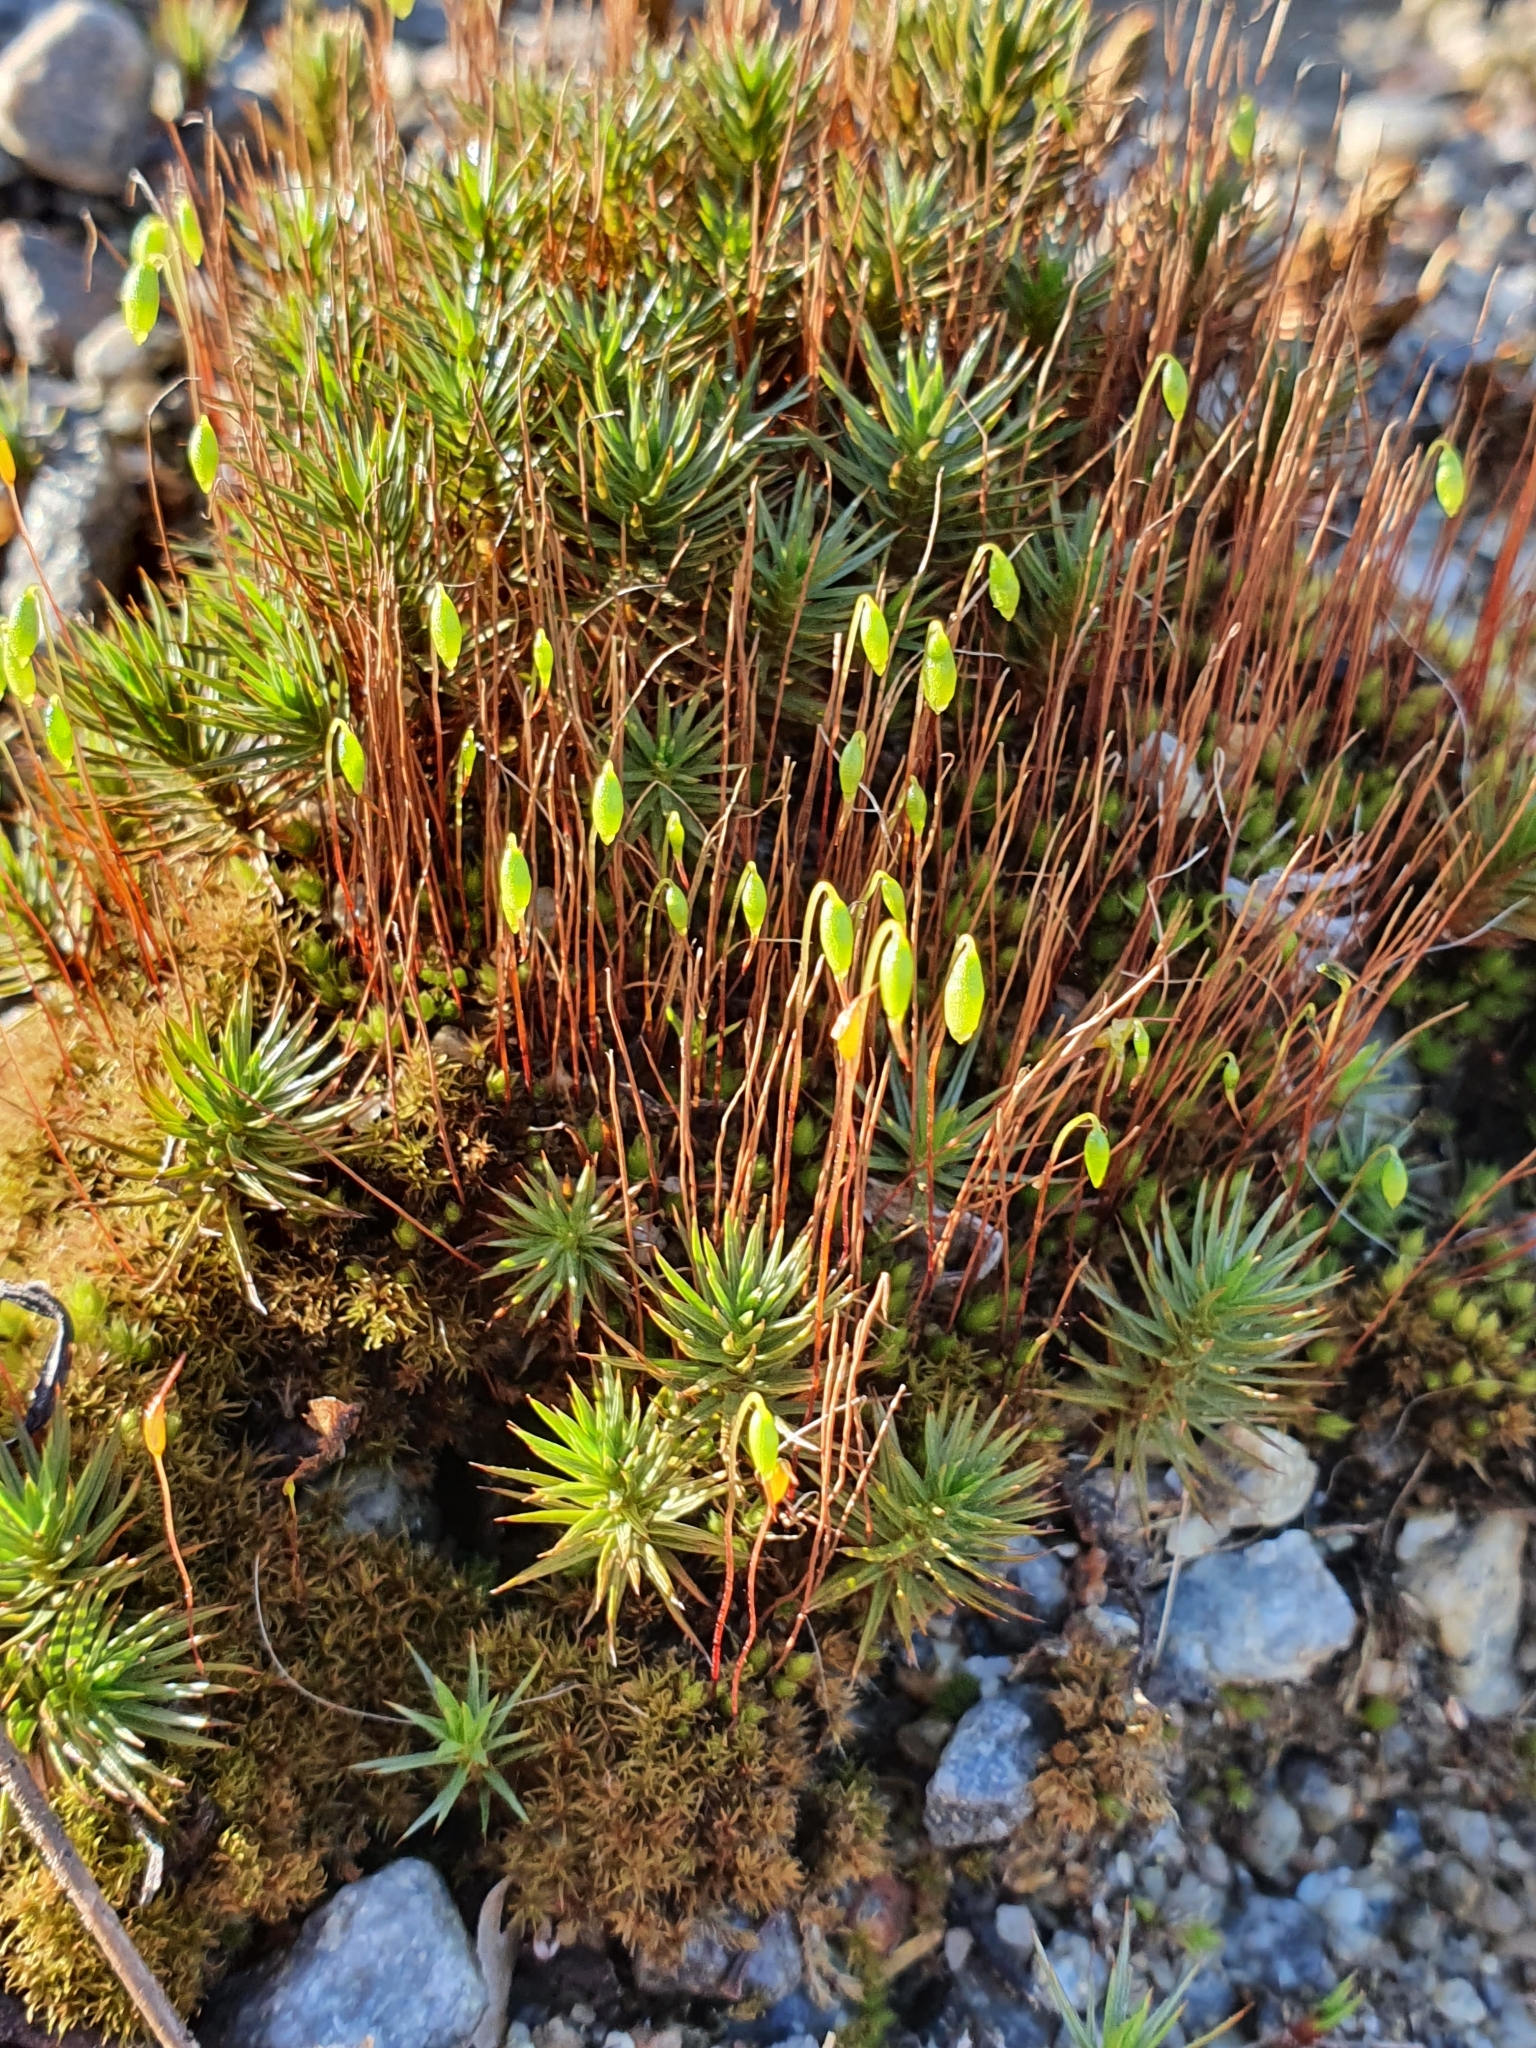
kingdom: Plantae
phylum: Bryophyta
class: Polytrichopsida
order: Polytrichales
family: Polytrichaceae
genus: Polytrichum
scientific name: Polytrichum juniperinum
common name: Juniper haircap moss
